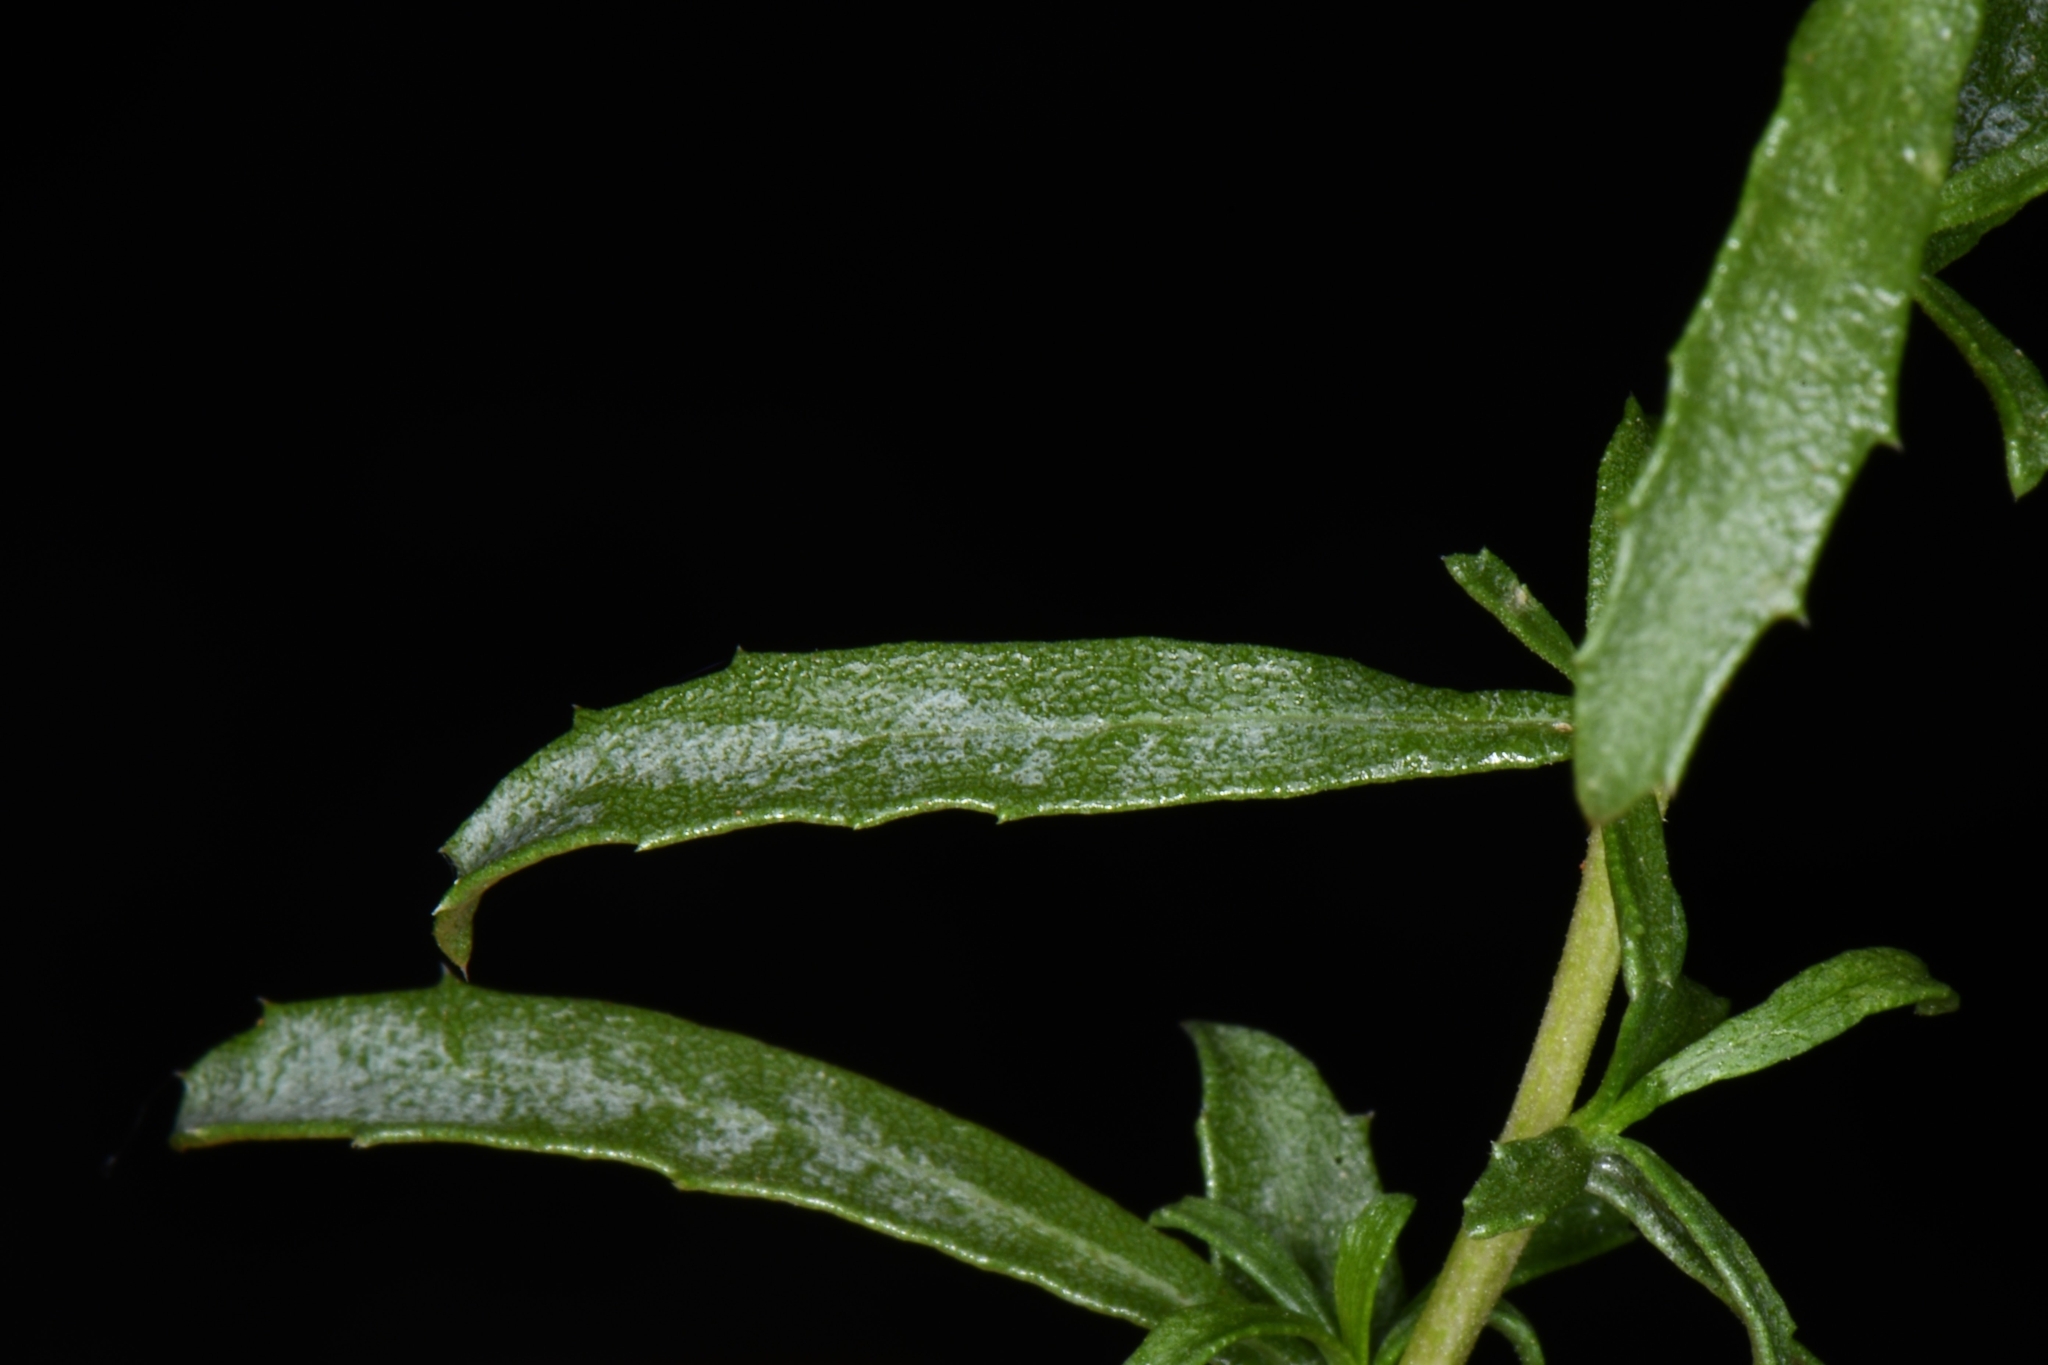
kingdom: Plantae
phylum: Tracheophyta
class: Magnoliopsida
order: Asterales
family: Asteraceae
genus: Isocoma
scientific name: Isocoma acradenia
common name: Alkali jimmyweed
